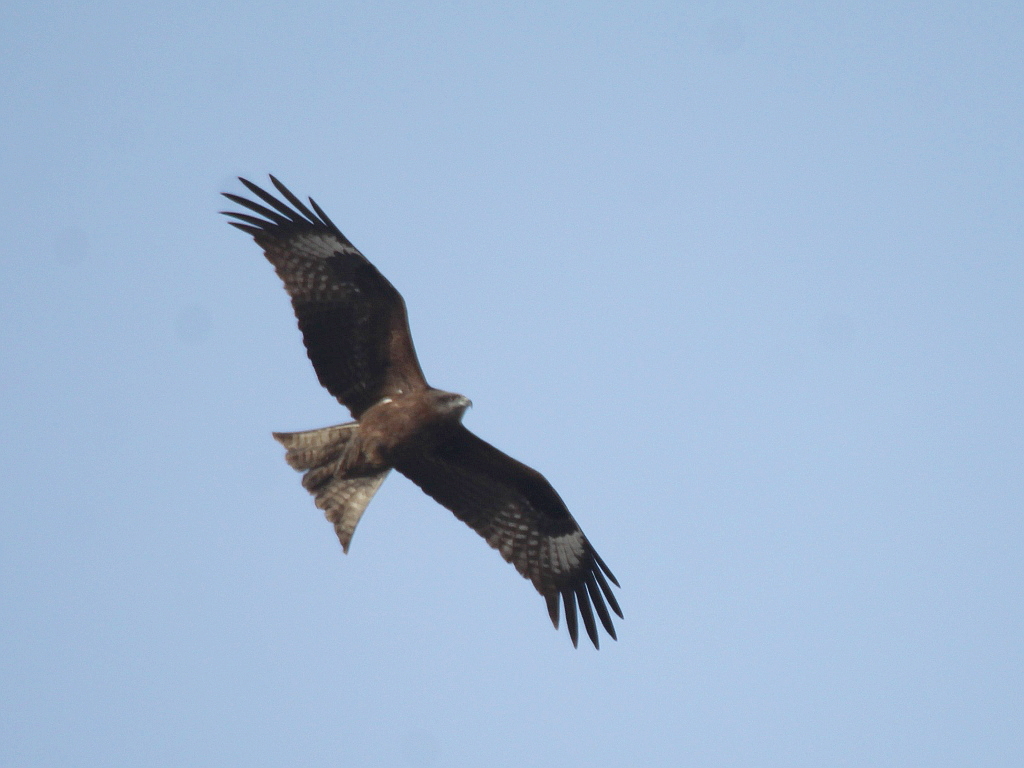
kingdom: Animalia
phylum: Chordata
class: Aves
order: Accipitriformes
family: Accipitridae
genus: Milvus
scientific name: Milvus migrans
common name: Black kite
